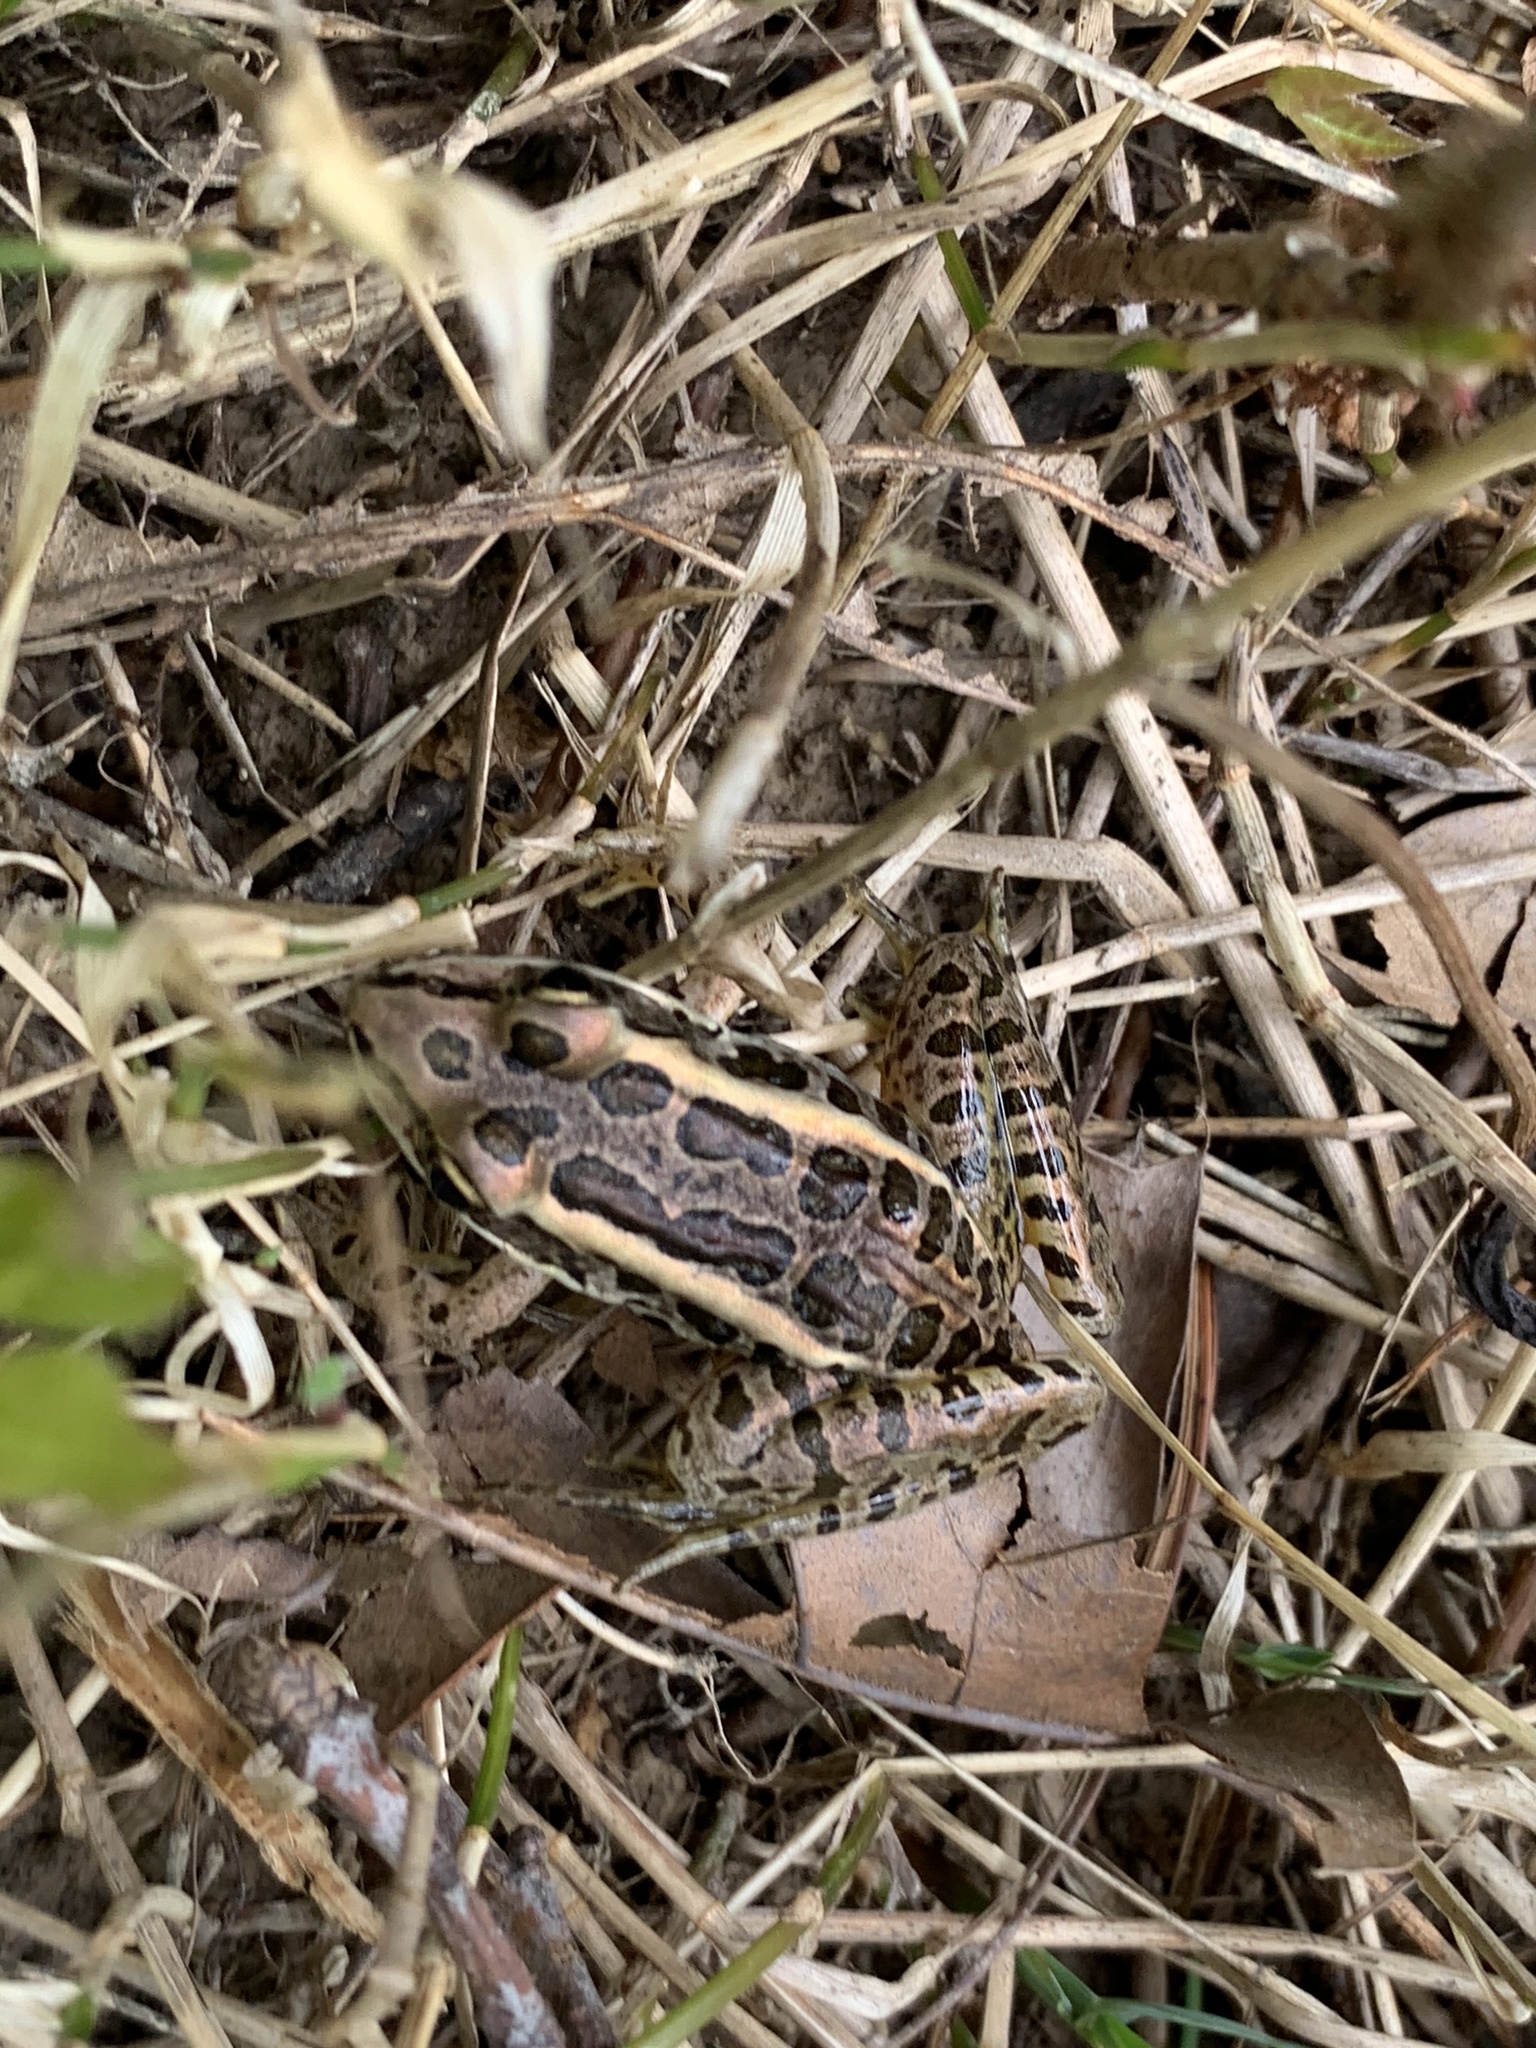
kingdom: Animalia
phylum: Chordata
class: Amphibia
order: Anura
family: Ranidae
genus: Lithobates
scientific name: Lithobates palustris
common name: Pickerel frog
